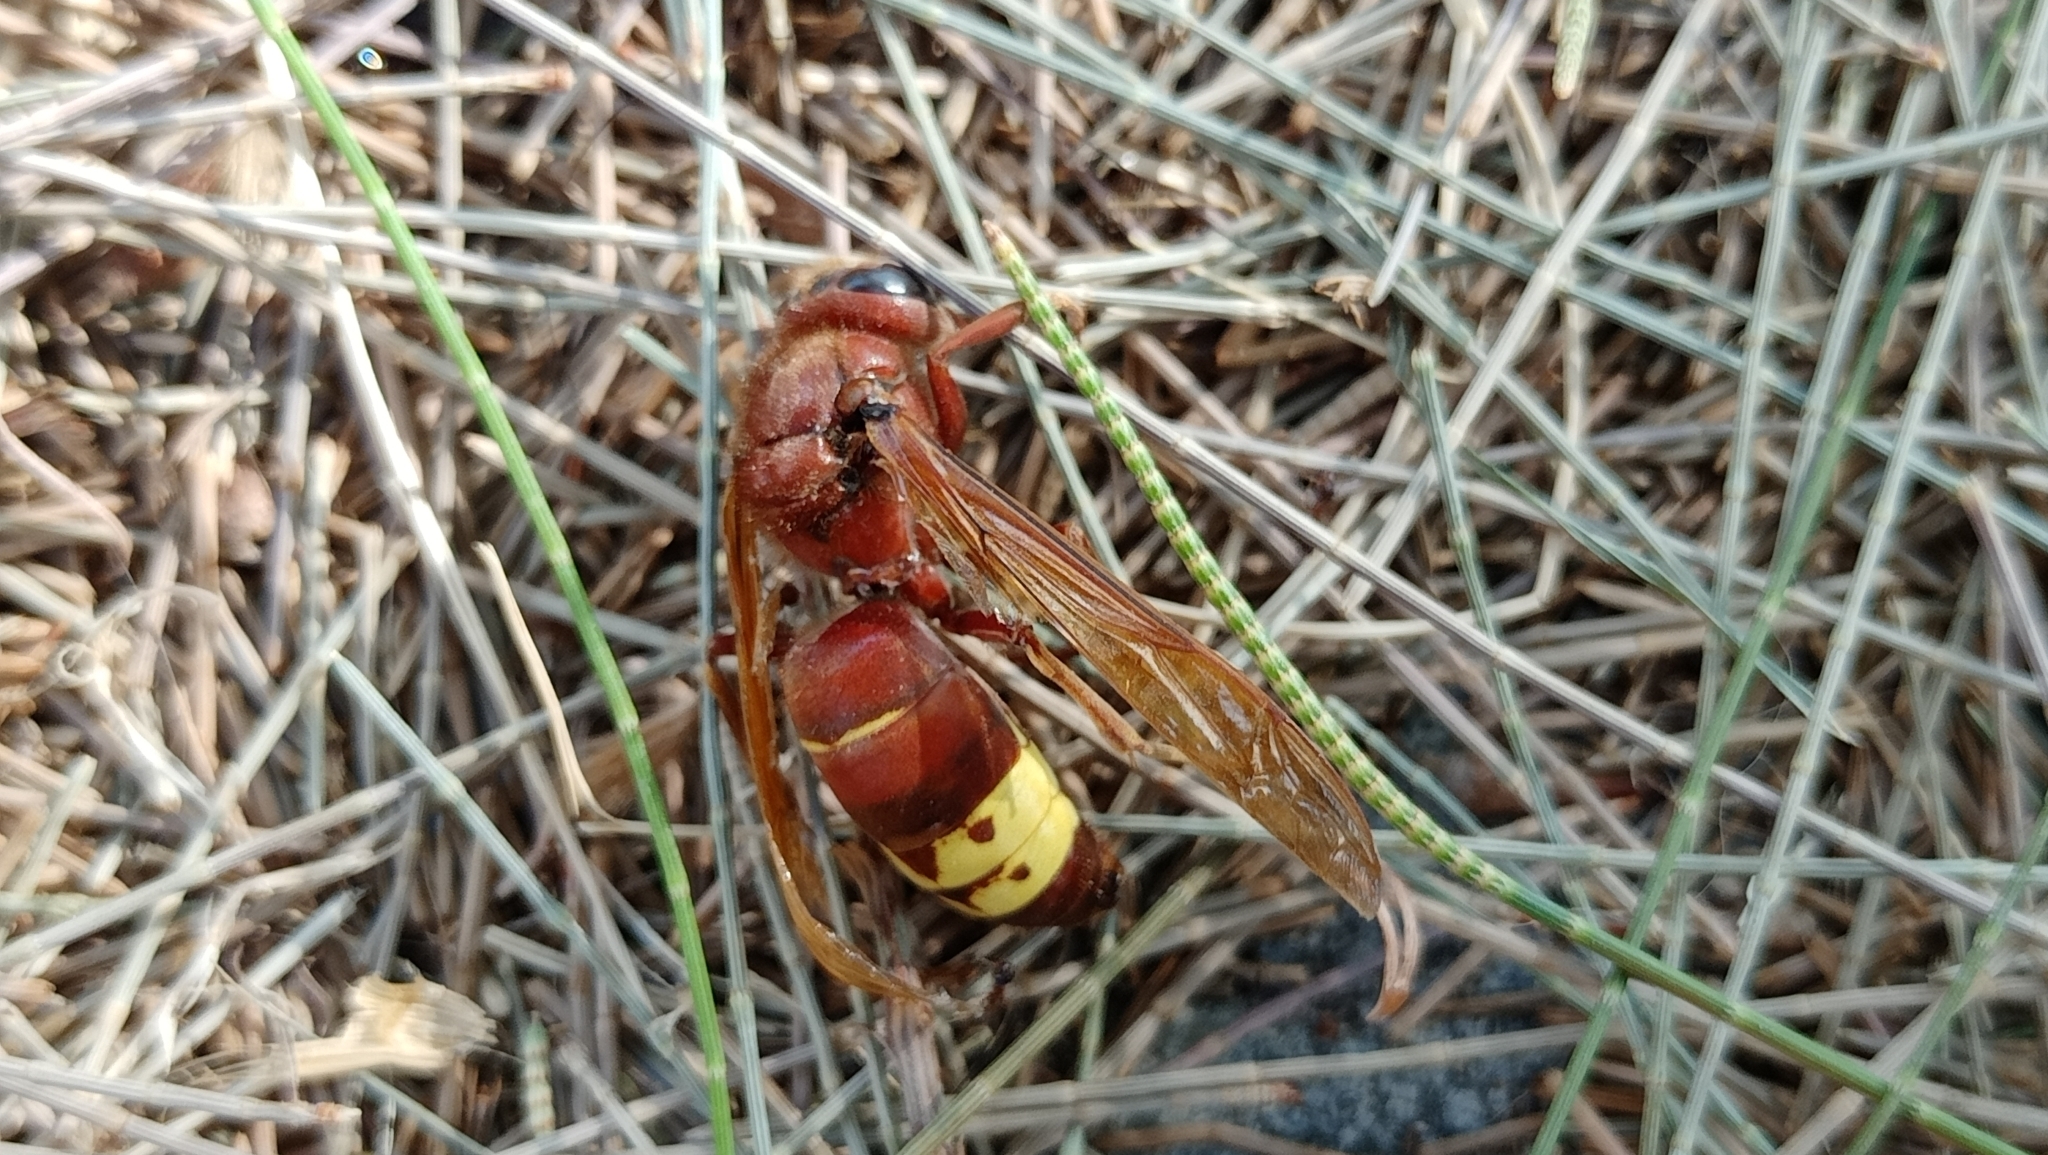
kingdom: Animalia
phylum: Arthropoda
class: Insecta
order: Hymenoptera
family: Vespidae
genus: Vespa
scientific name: Vespa orientalis
